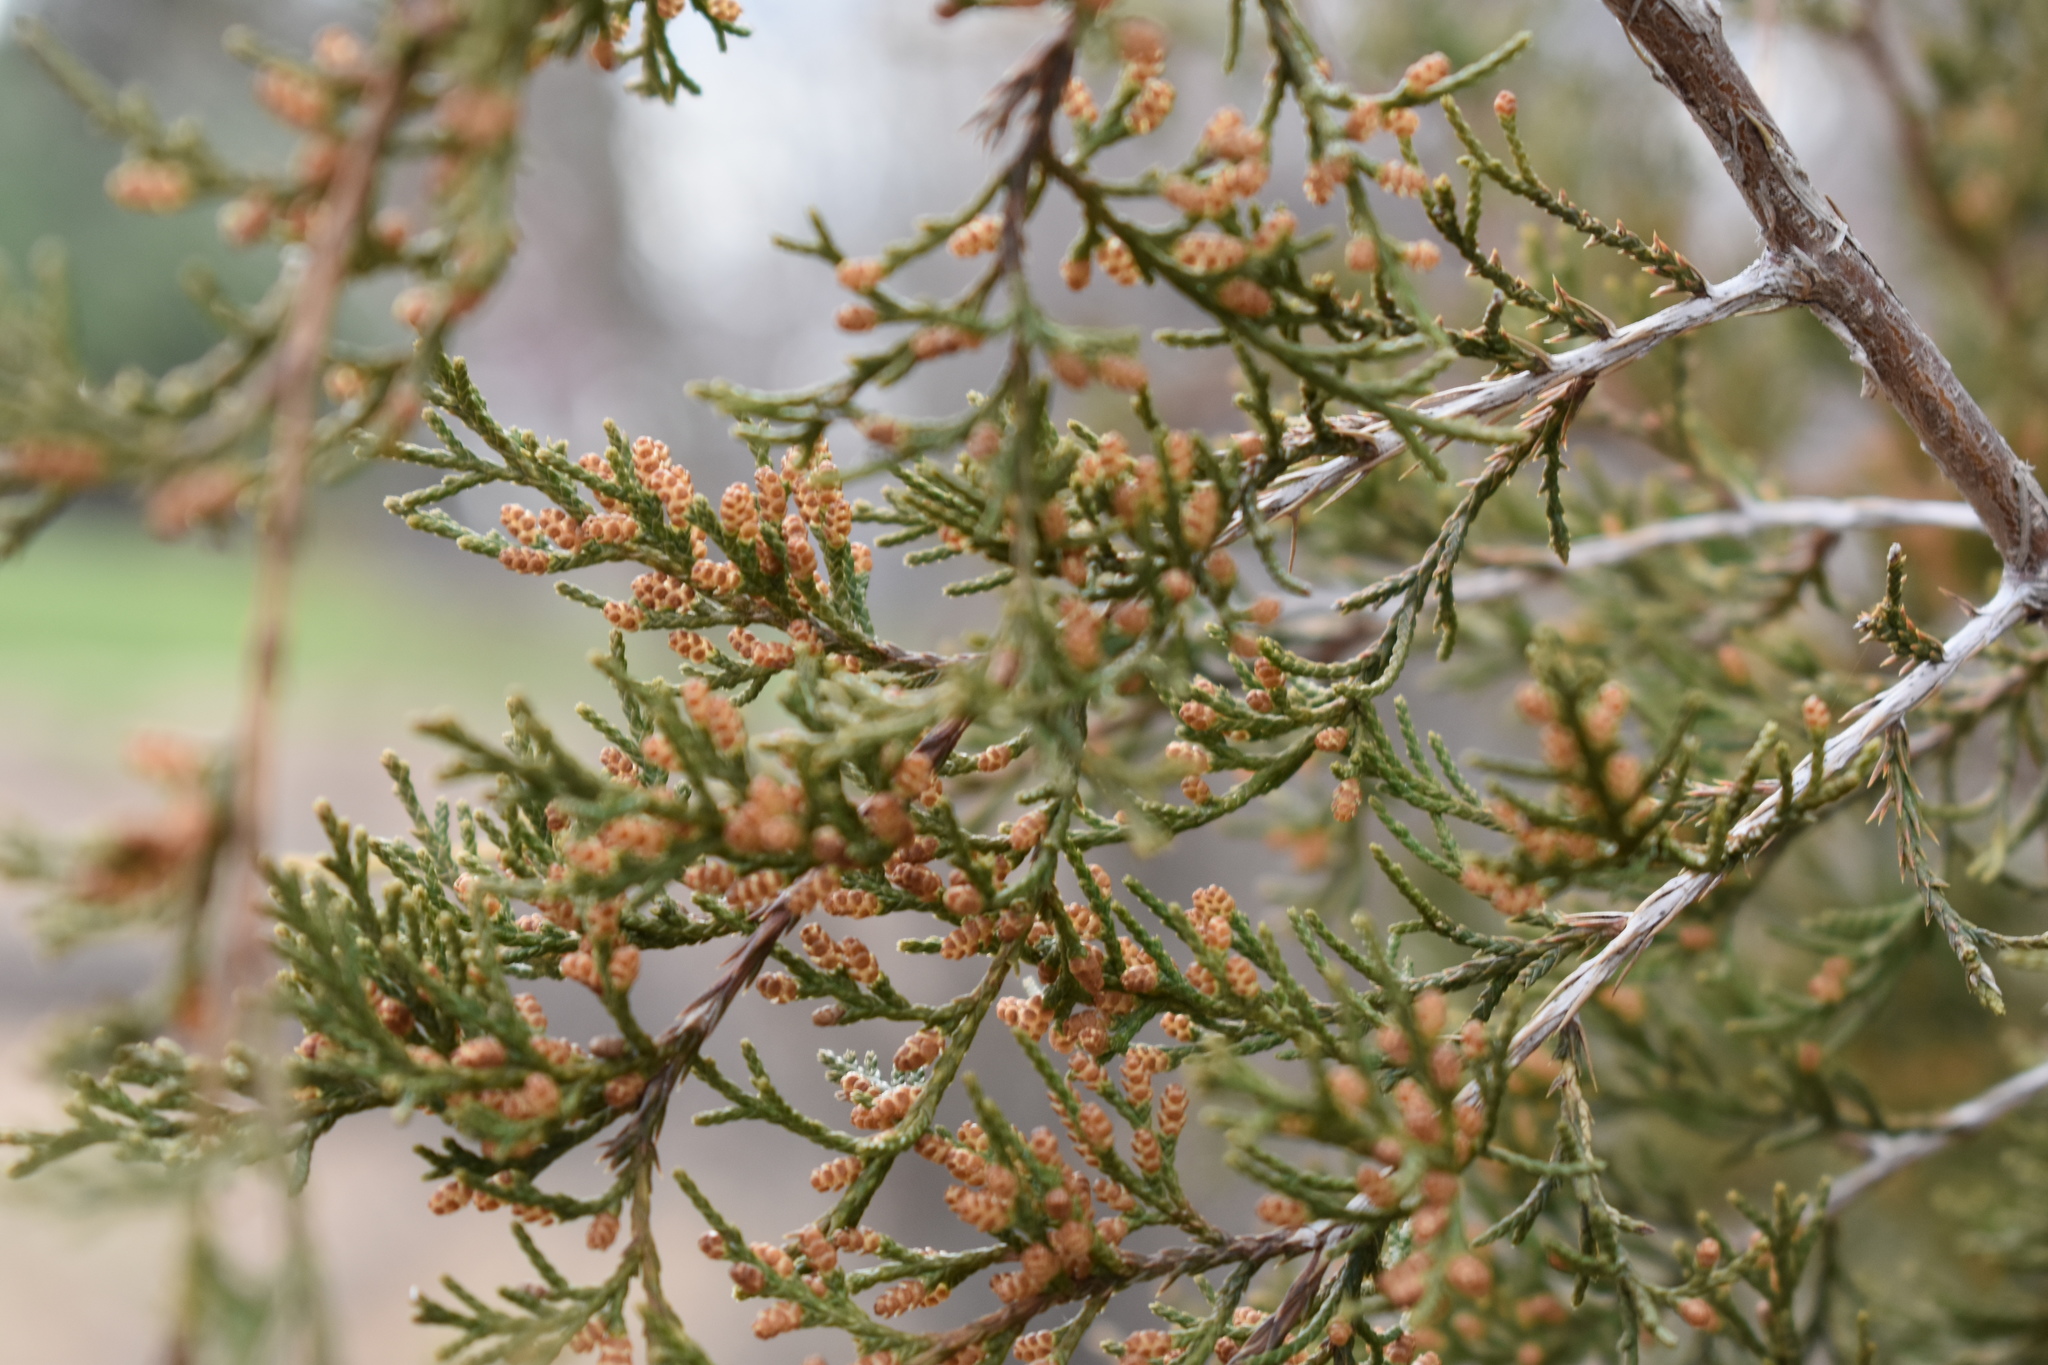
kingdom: Plantae
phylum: Tracheophyta
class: Pinopsida
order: Pinales
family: Cupressaceae
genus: Juniperus
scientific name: Juniperus virginiana
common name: Red juniper
